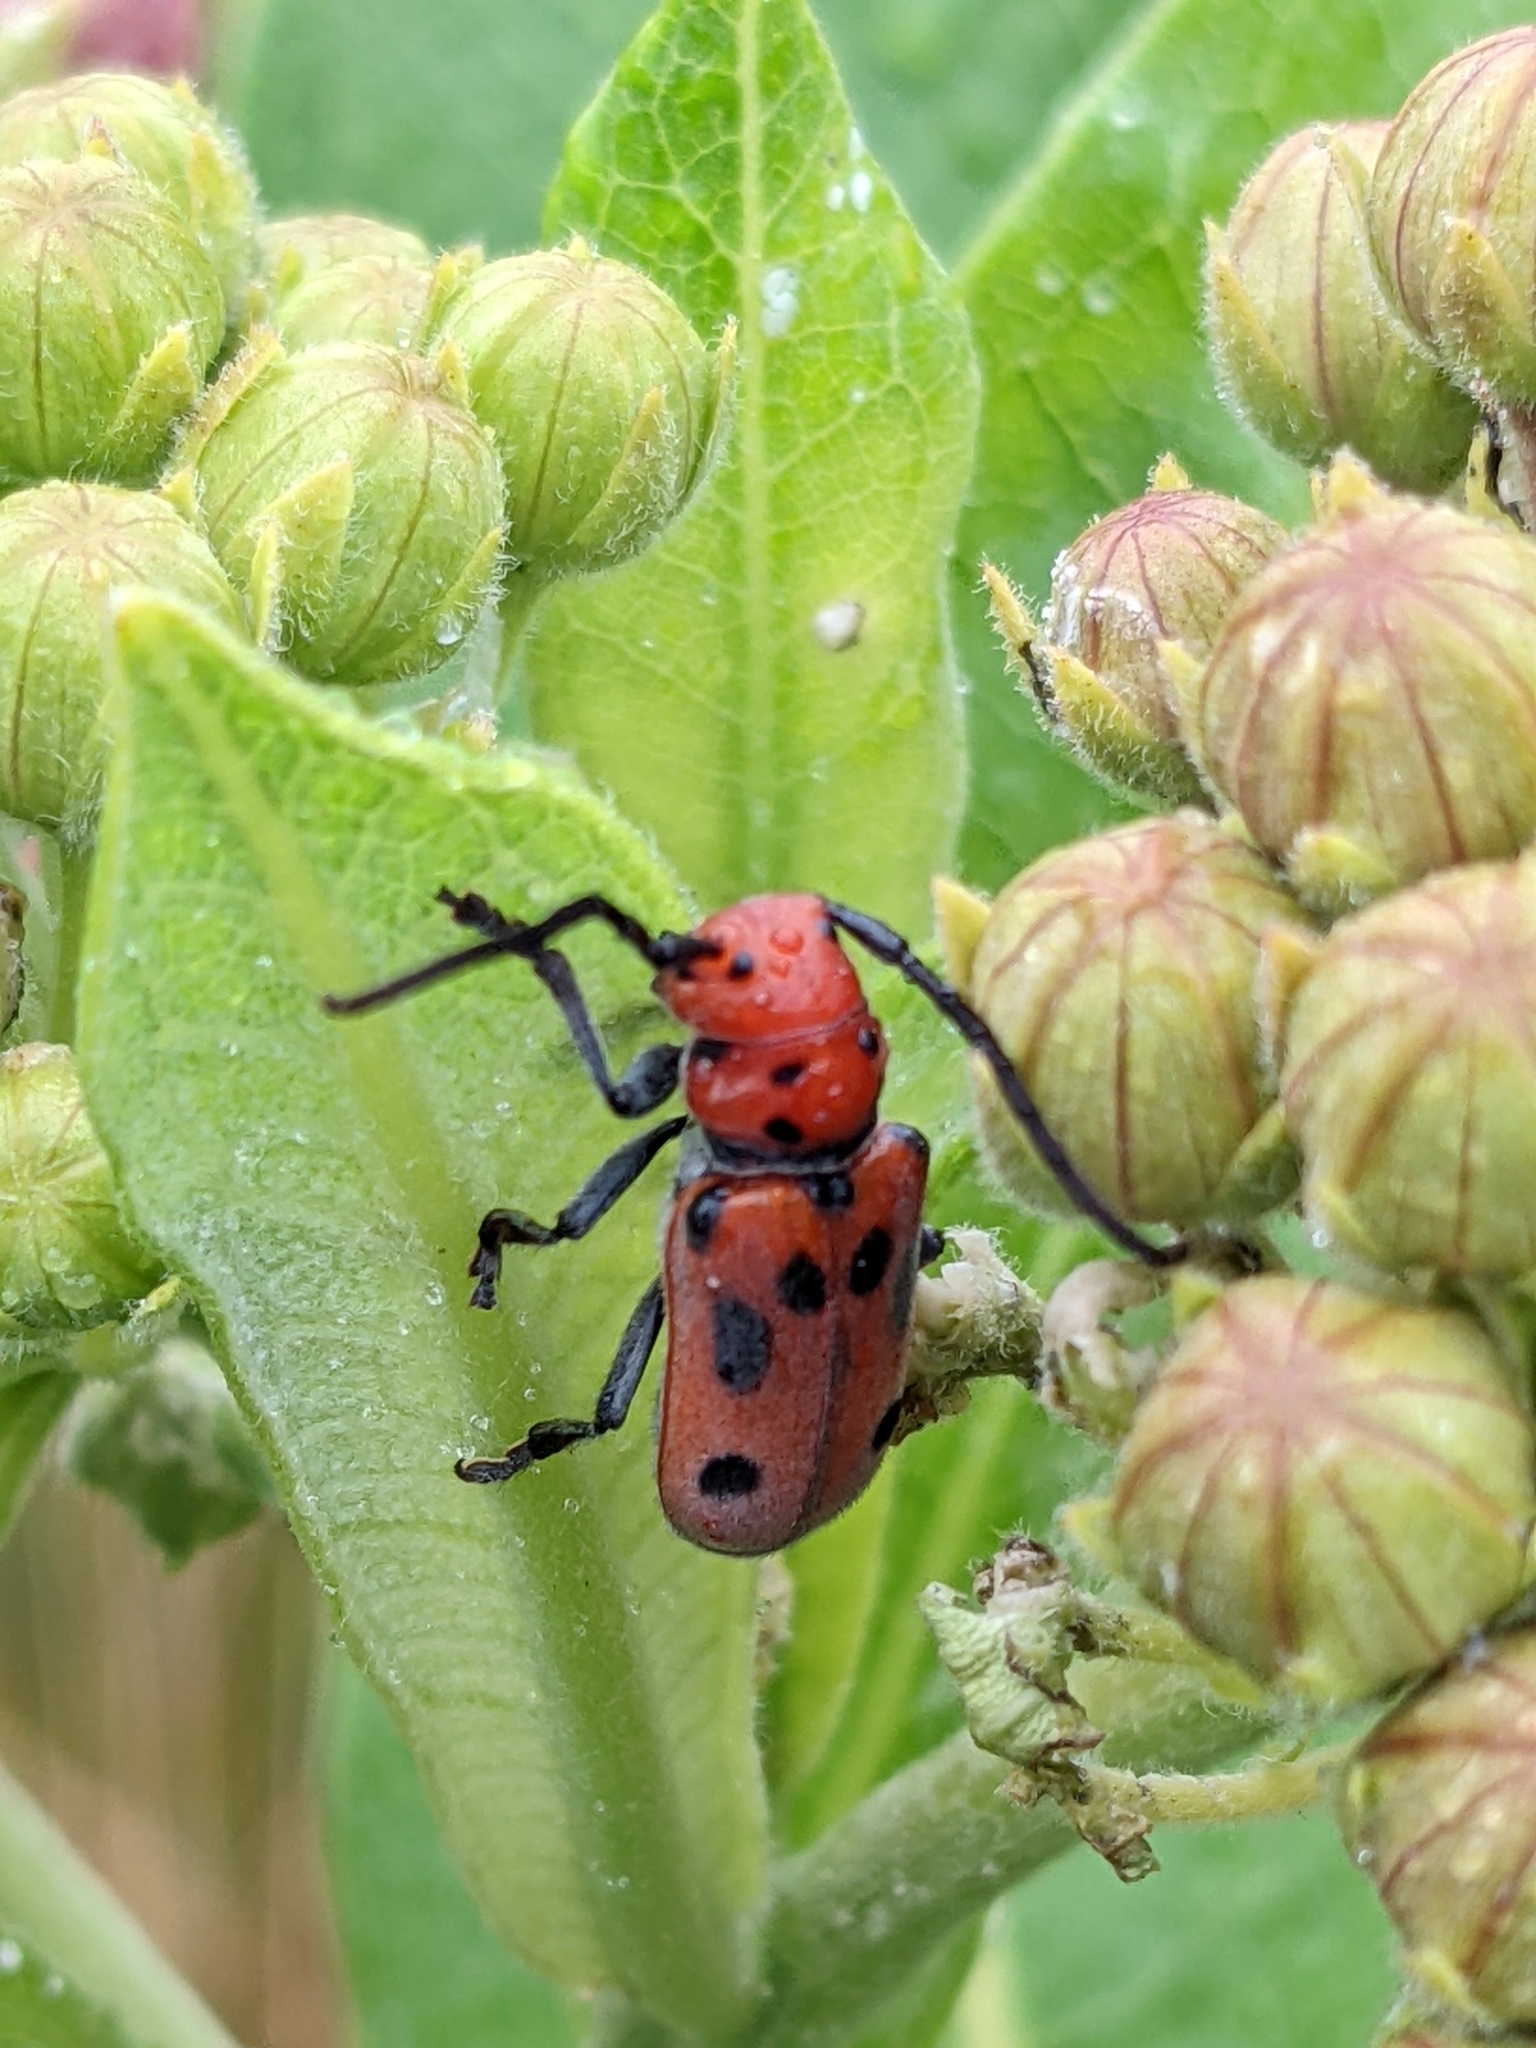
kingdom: Animalia
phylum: Arthropoda
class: Insecta
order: Coleoptera
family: Cerambycidae
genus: Tetraopes
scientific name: Tetraopes tetrophthalmus
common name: Red milkweed beetle
